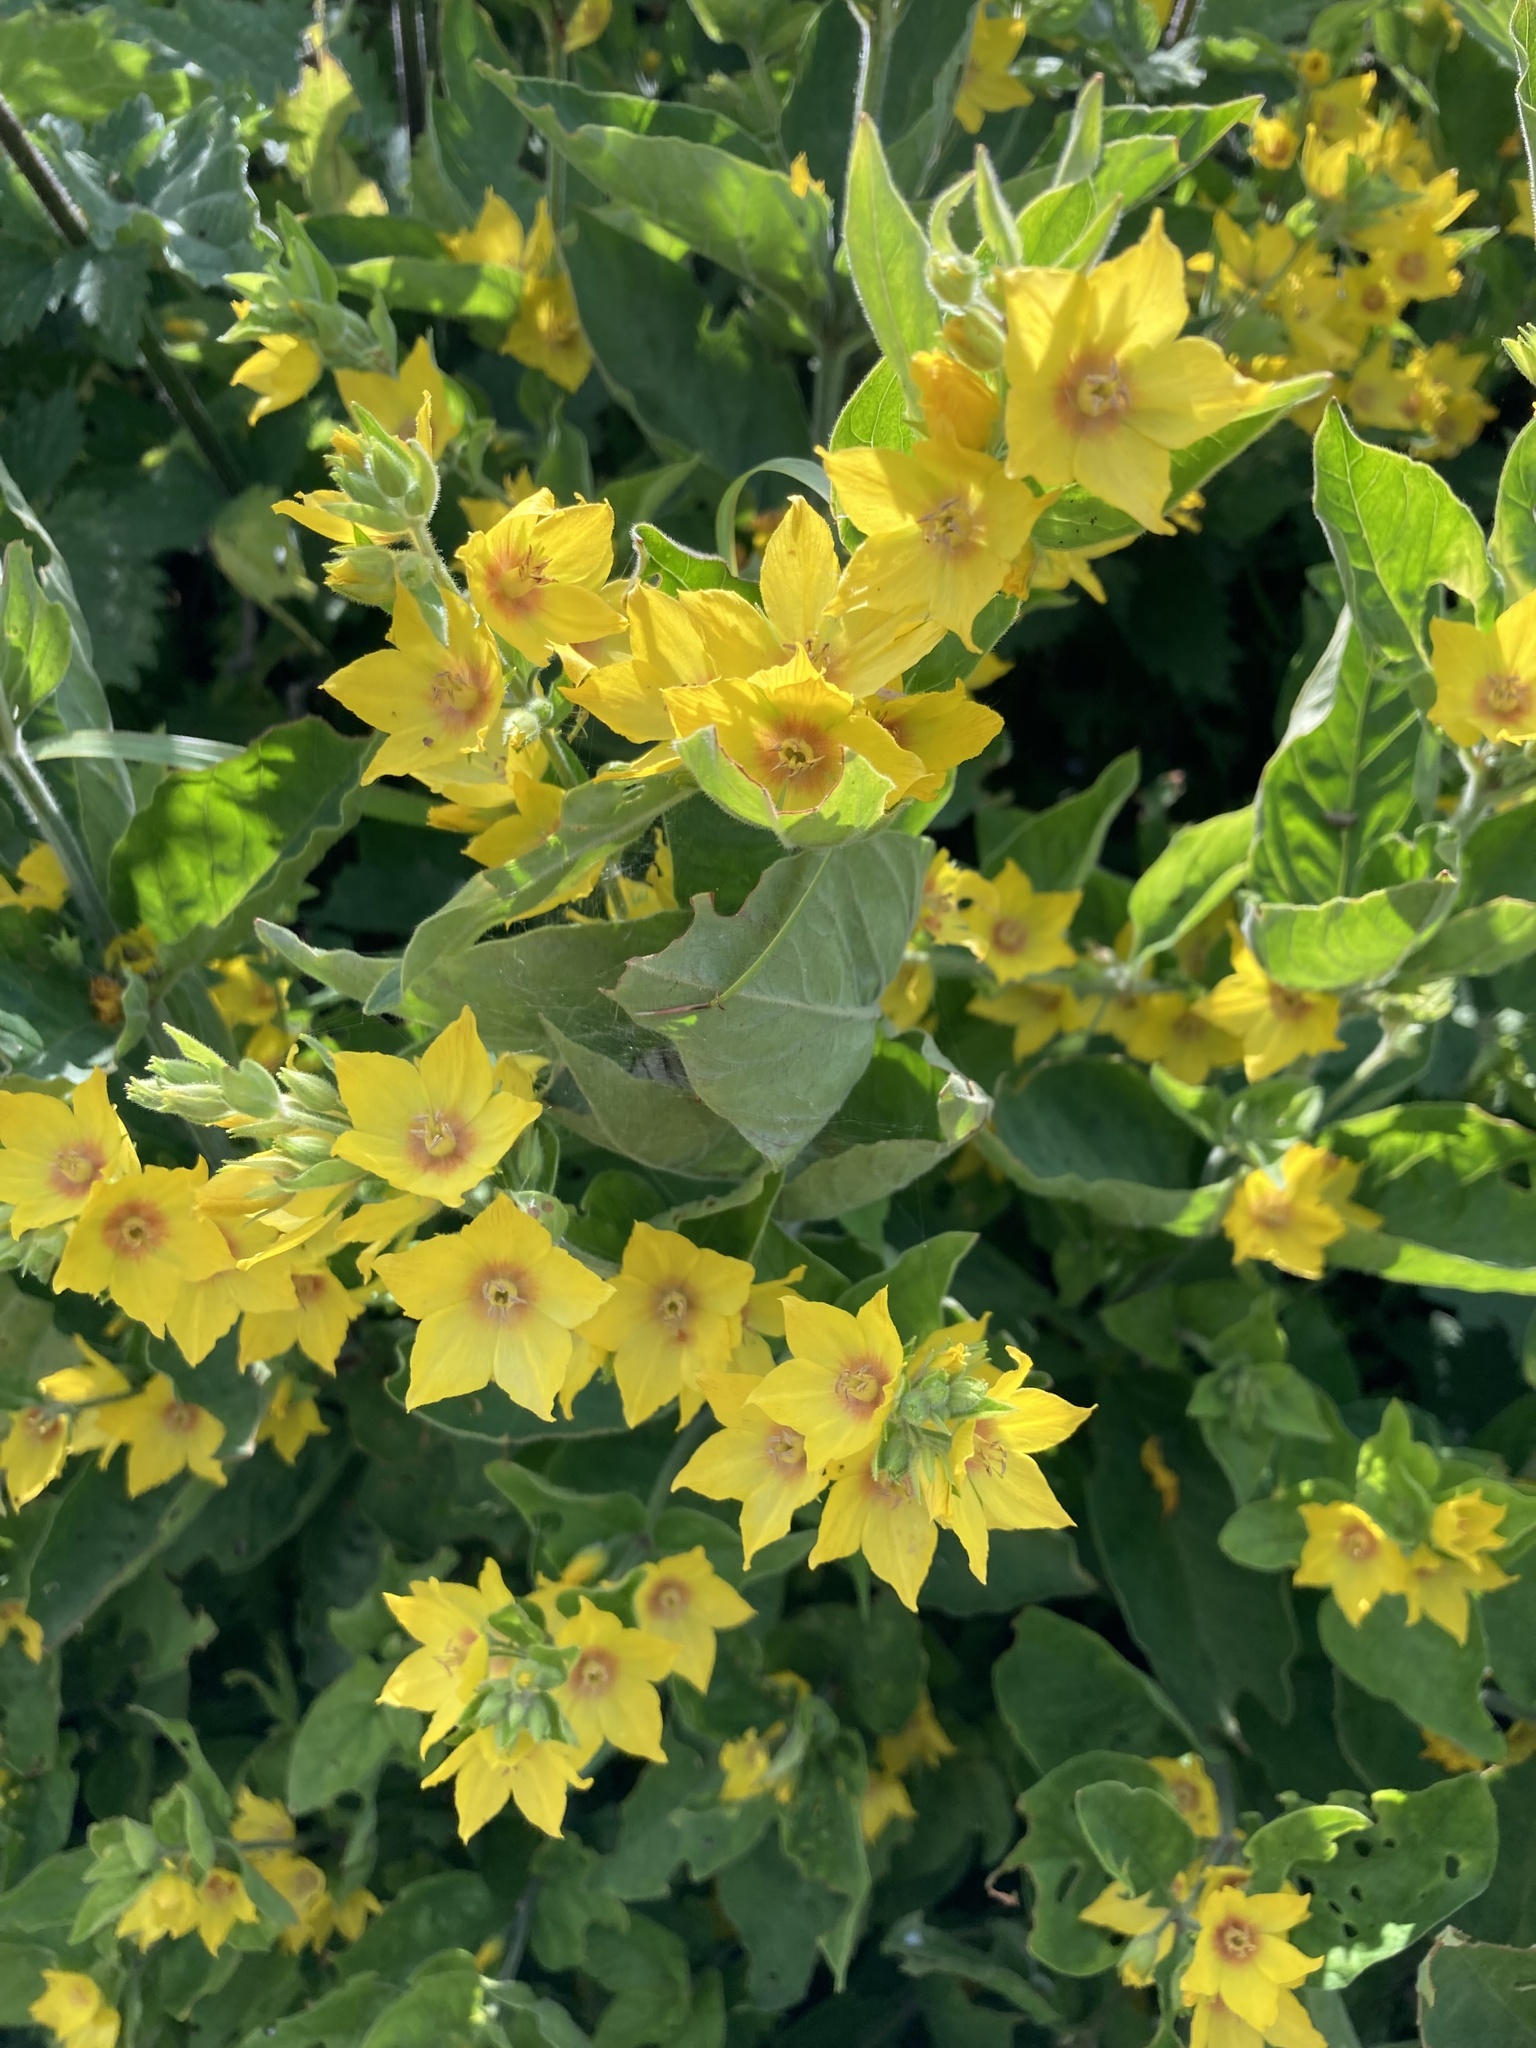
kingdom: Plantae
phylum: Tracheophyta
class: Magnoliopsida
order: Ericales
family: Primulaceae
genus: Lysimachia
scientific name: Lysimachia punctata
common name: Dotted loosestrife
